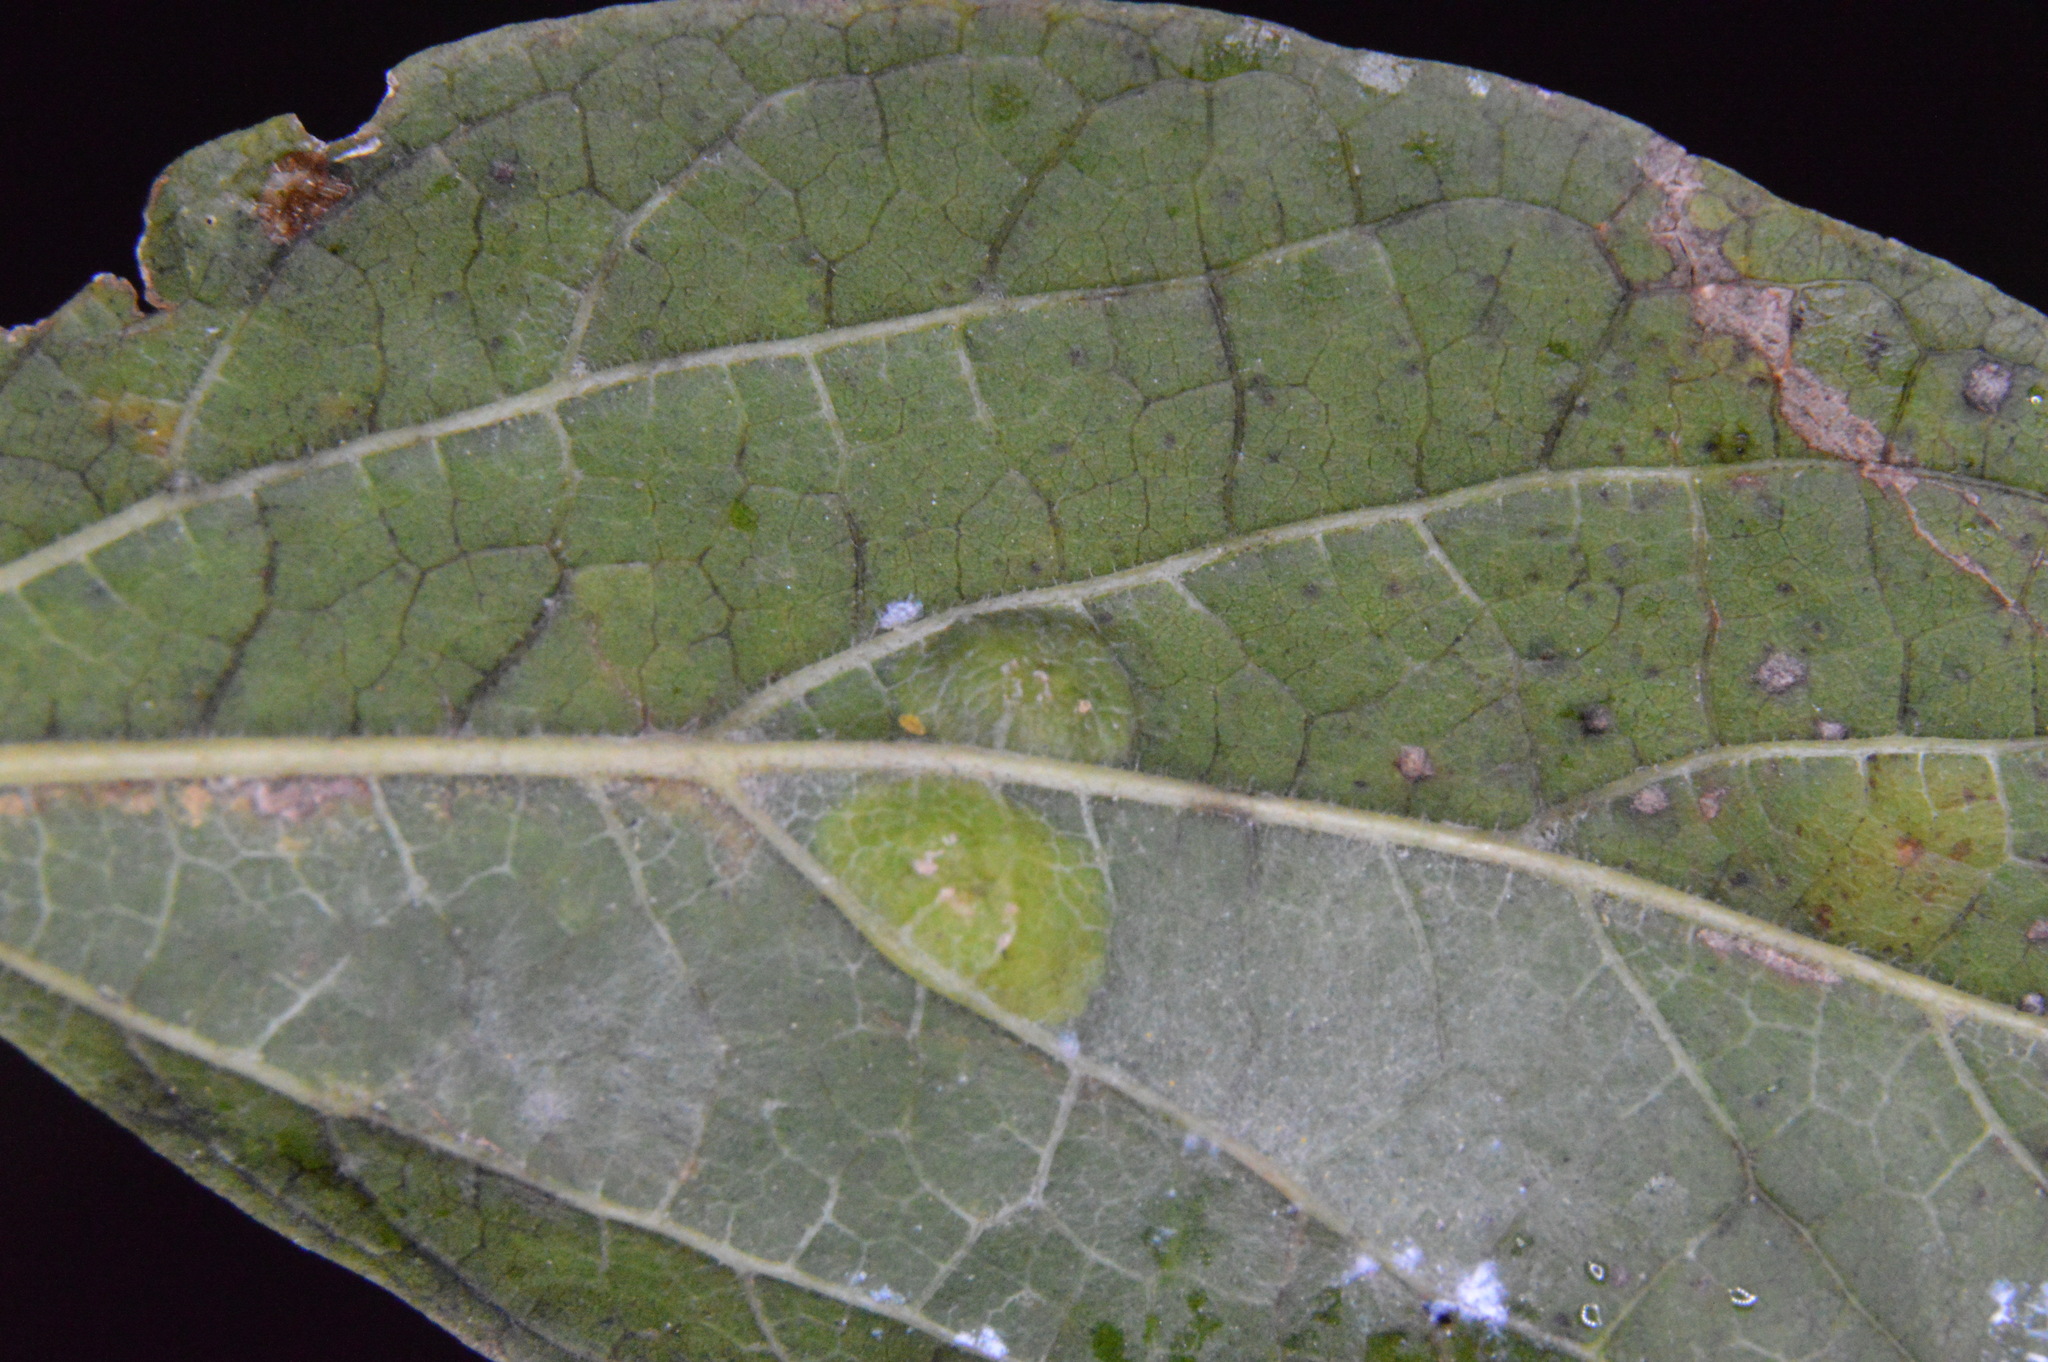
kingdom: Animalia
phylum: Arthropoda
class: Insecta
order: Hemiptera
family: Aphalaridae
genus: Pachypsylla
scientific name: Pachypsylla celtidisvesicula
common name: Hackberry blister gall psyllid
